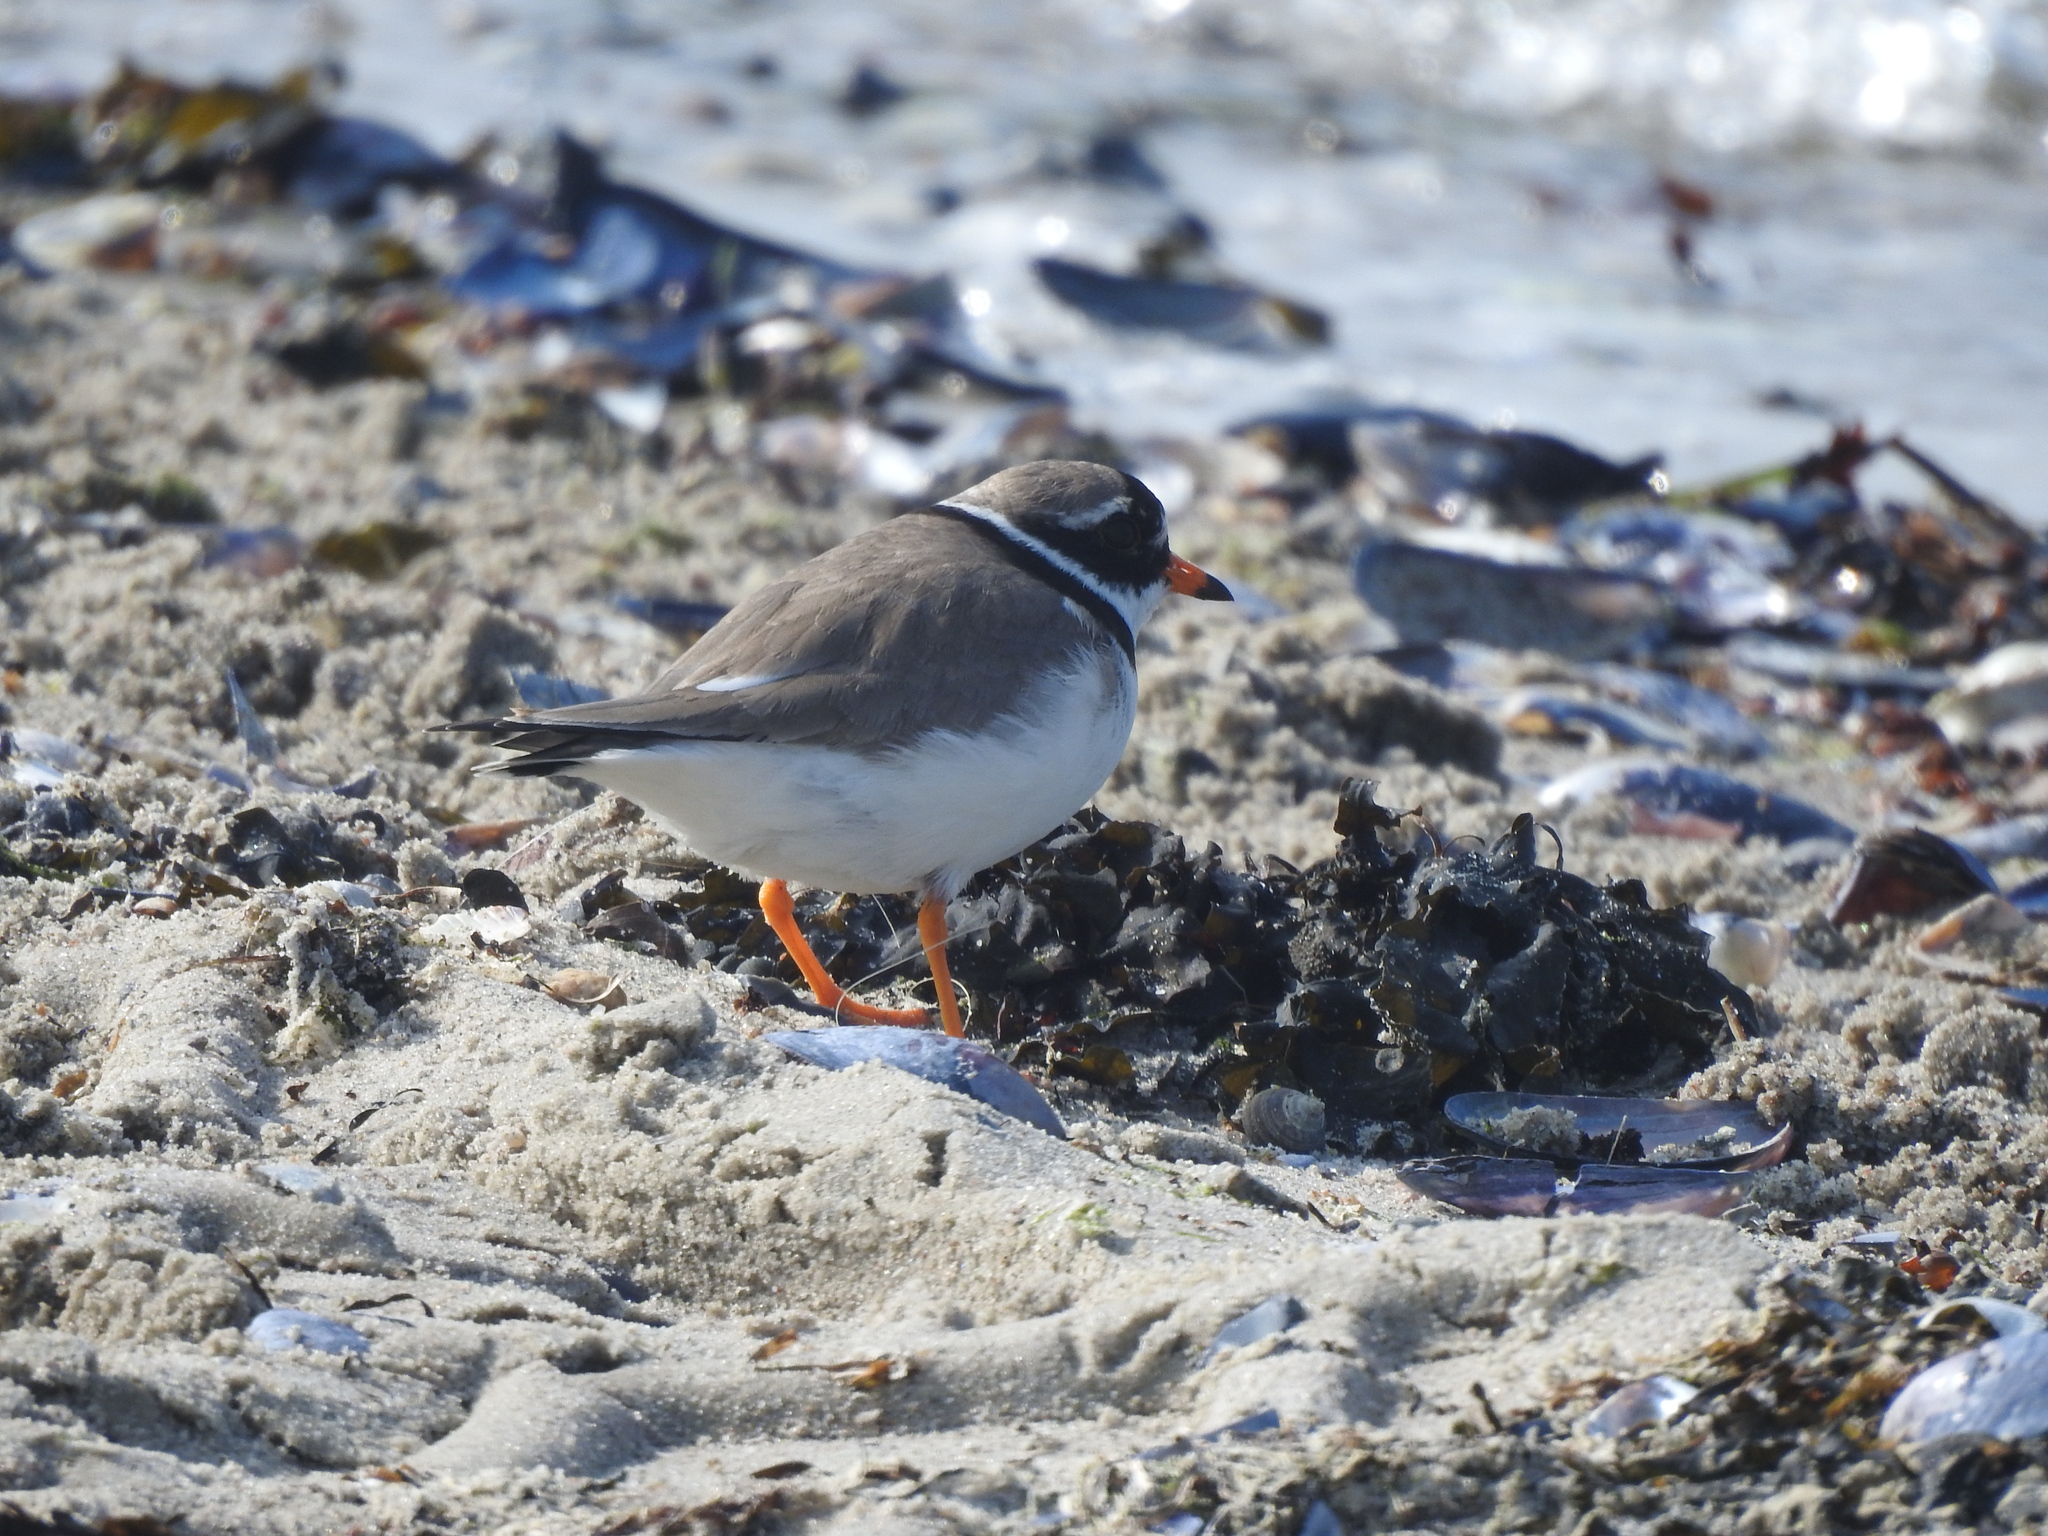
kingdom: Animalia
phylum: Chordata
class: Aves
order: Charadriiformes
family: Charadriidae
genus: Charadrius
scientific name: Charadrius hiaticula
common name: Common ringed plover
